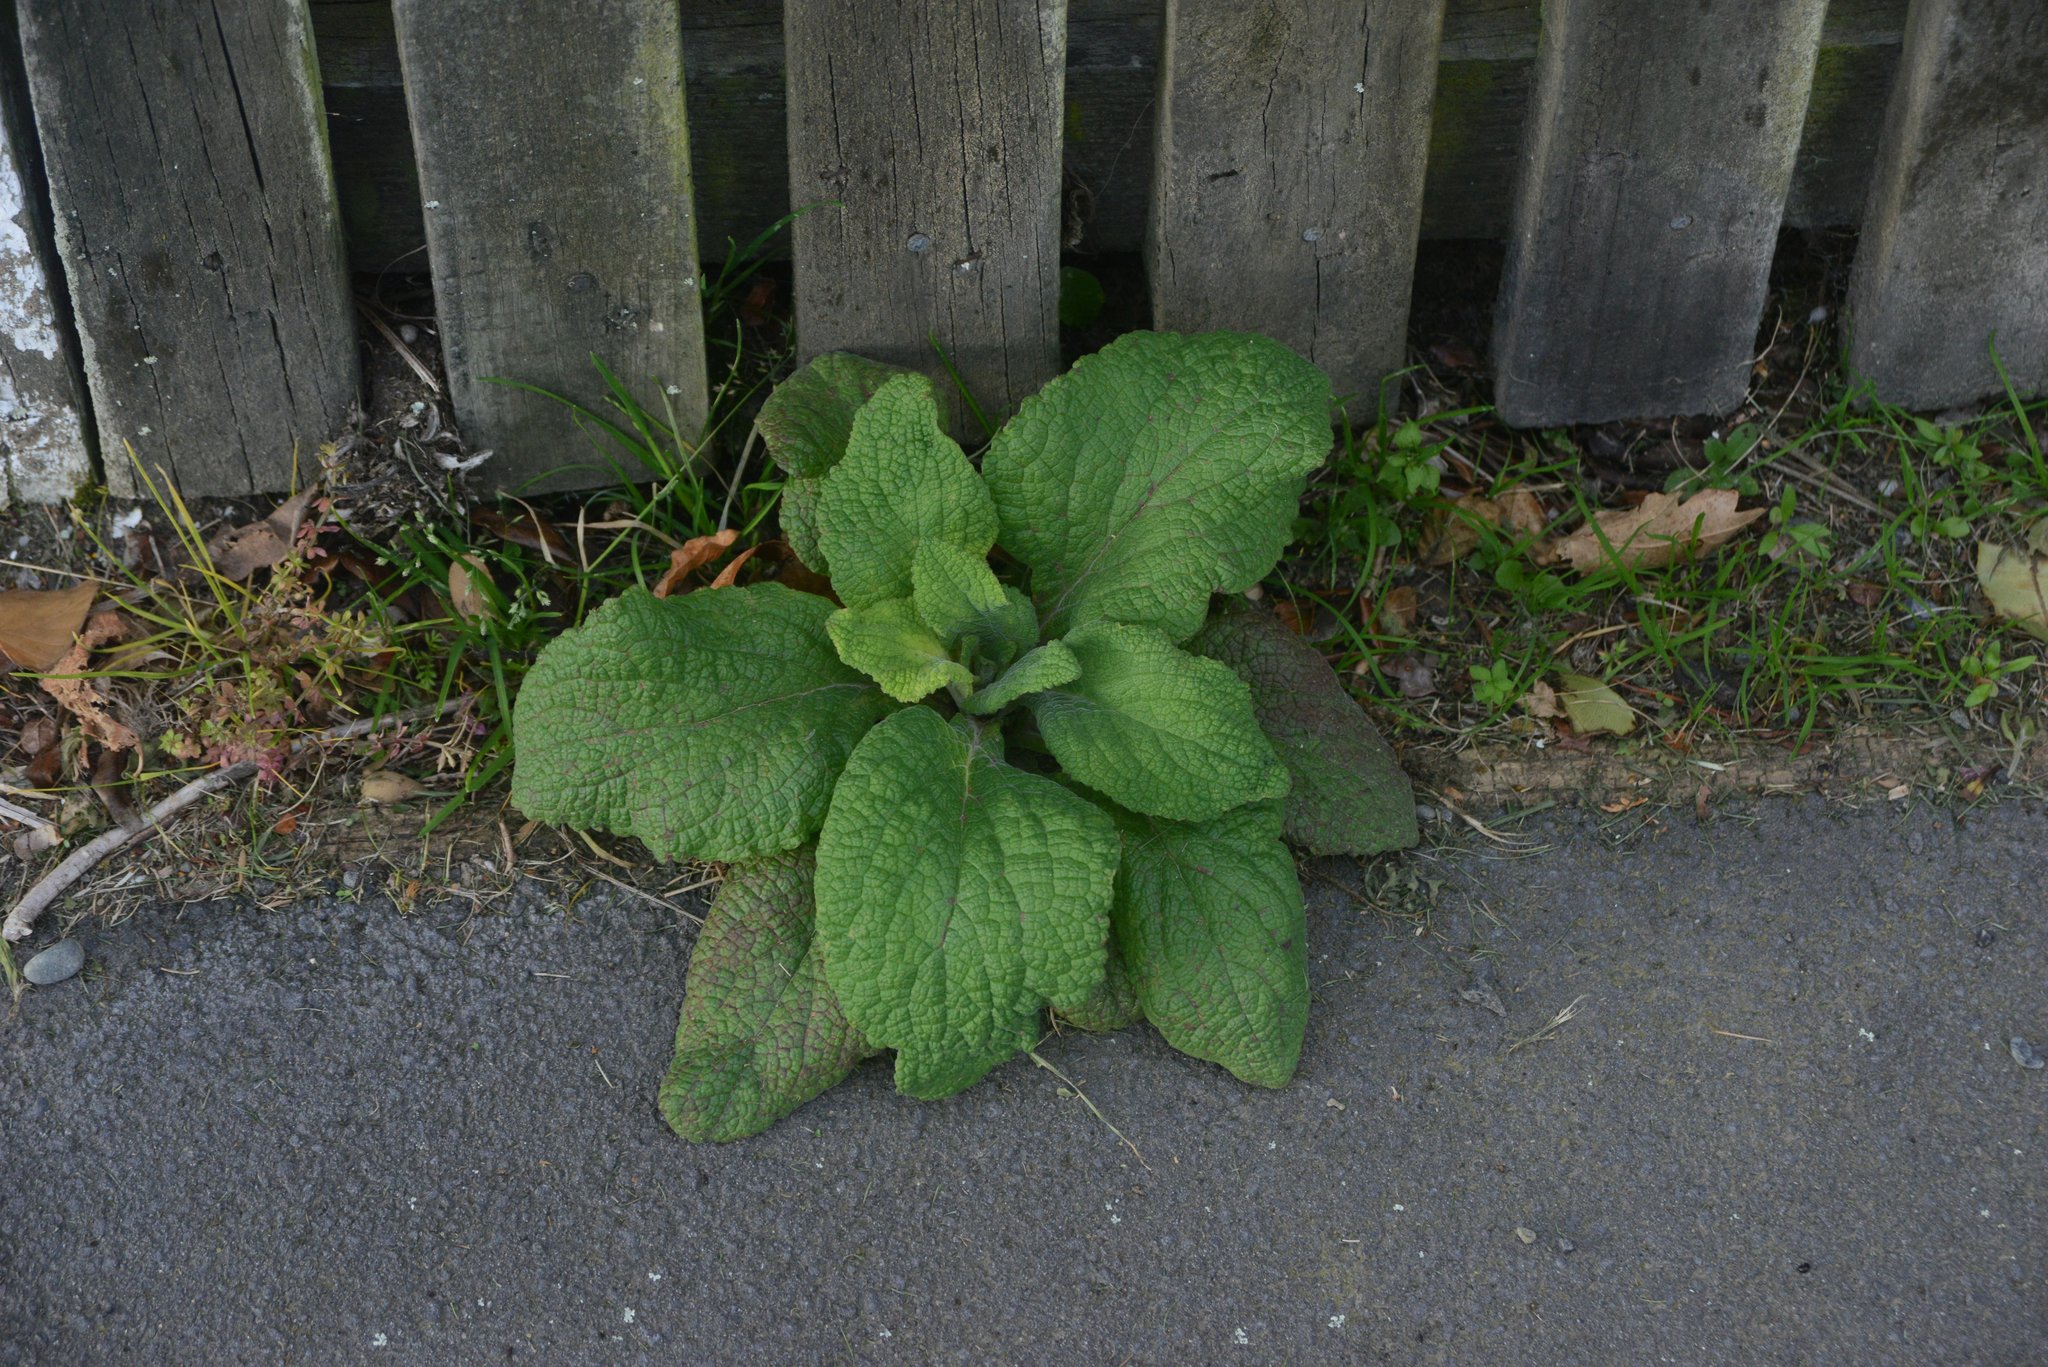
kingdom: Plantae
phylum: Tracheophyta
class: Magnoliopsida
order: Lamiales
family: Plantaginaceae
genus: Digitalis
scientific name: Digitalis purpurea
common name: Foxglove
